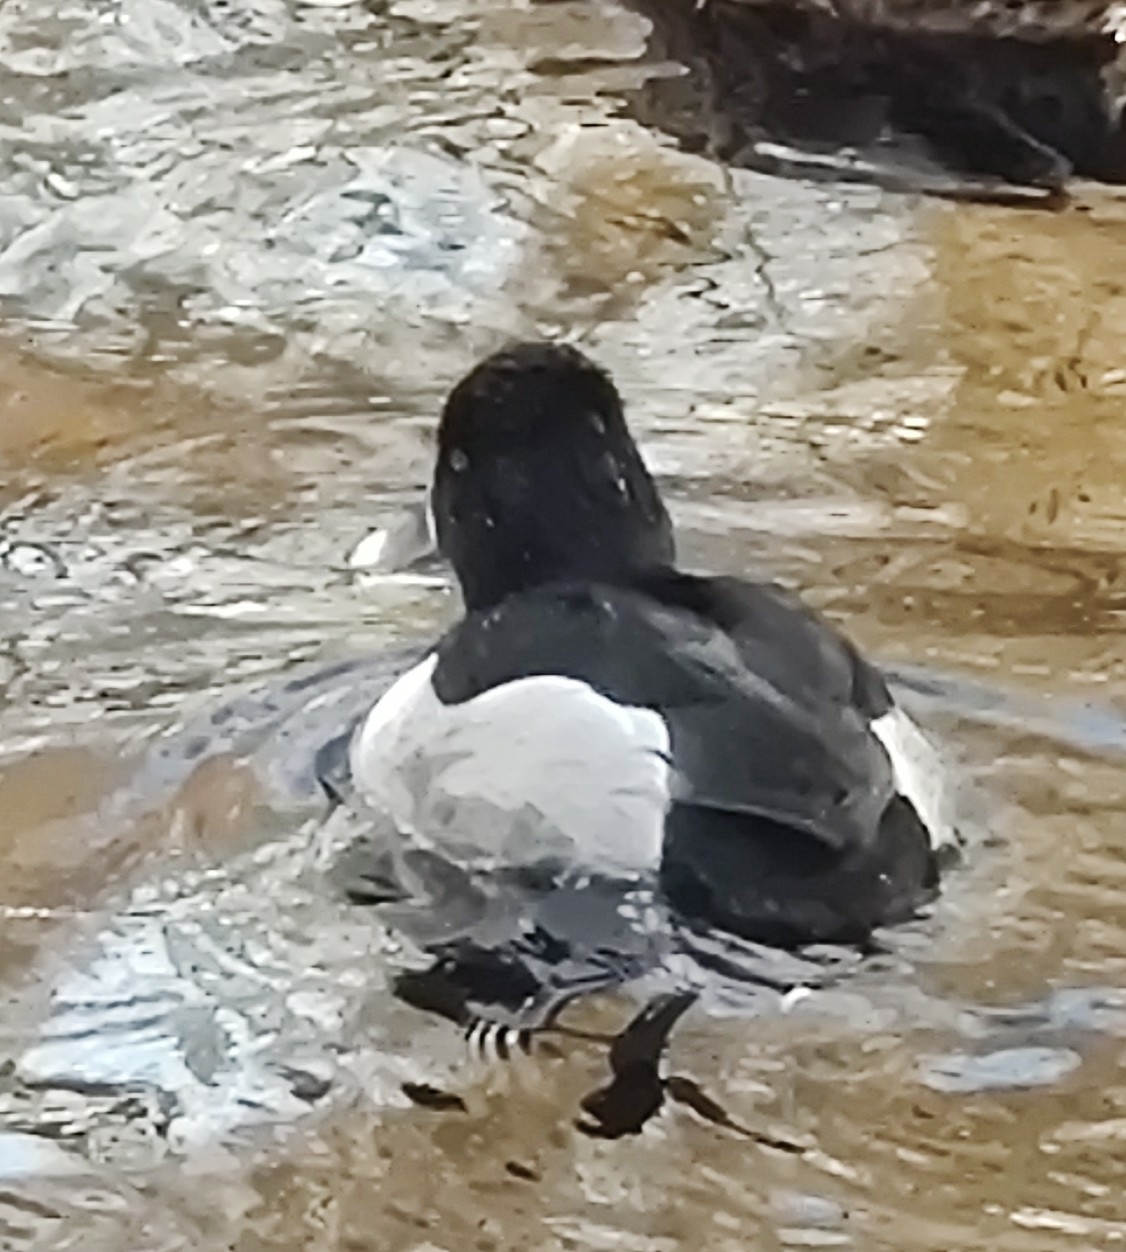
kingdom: Animalia
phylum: Chordata
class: Aves
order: Anseriformes
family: Anatidae
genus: Aythya
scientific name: Aythya collaris
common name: Ring-necked duck
